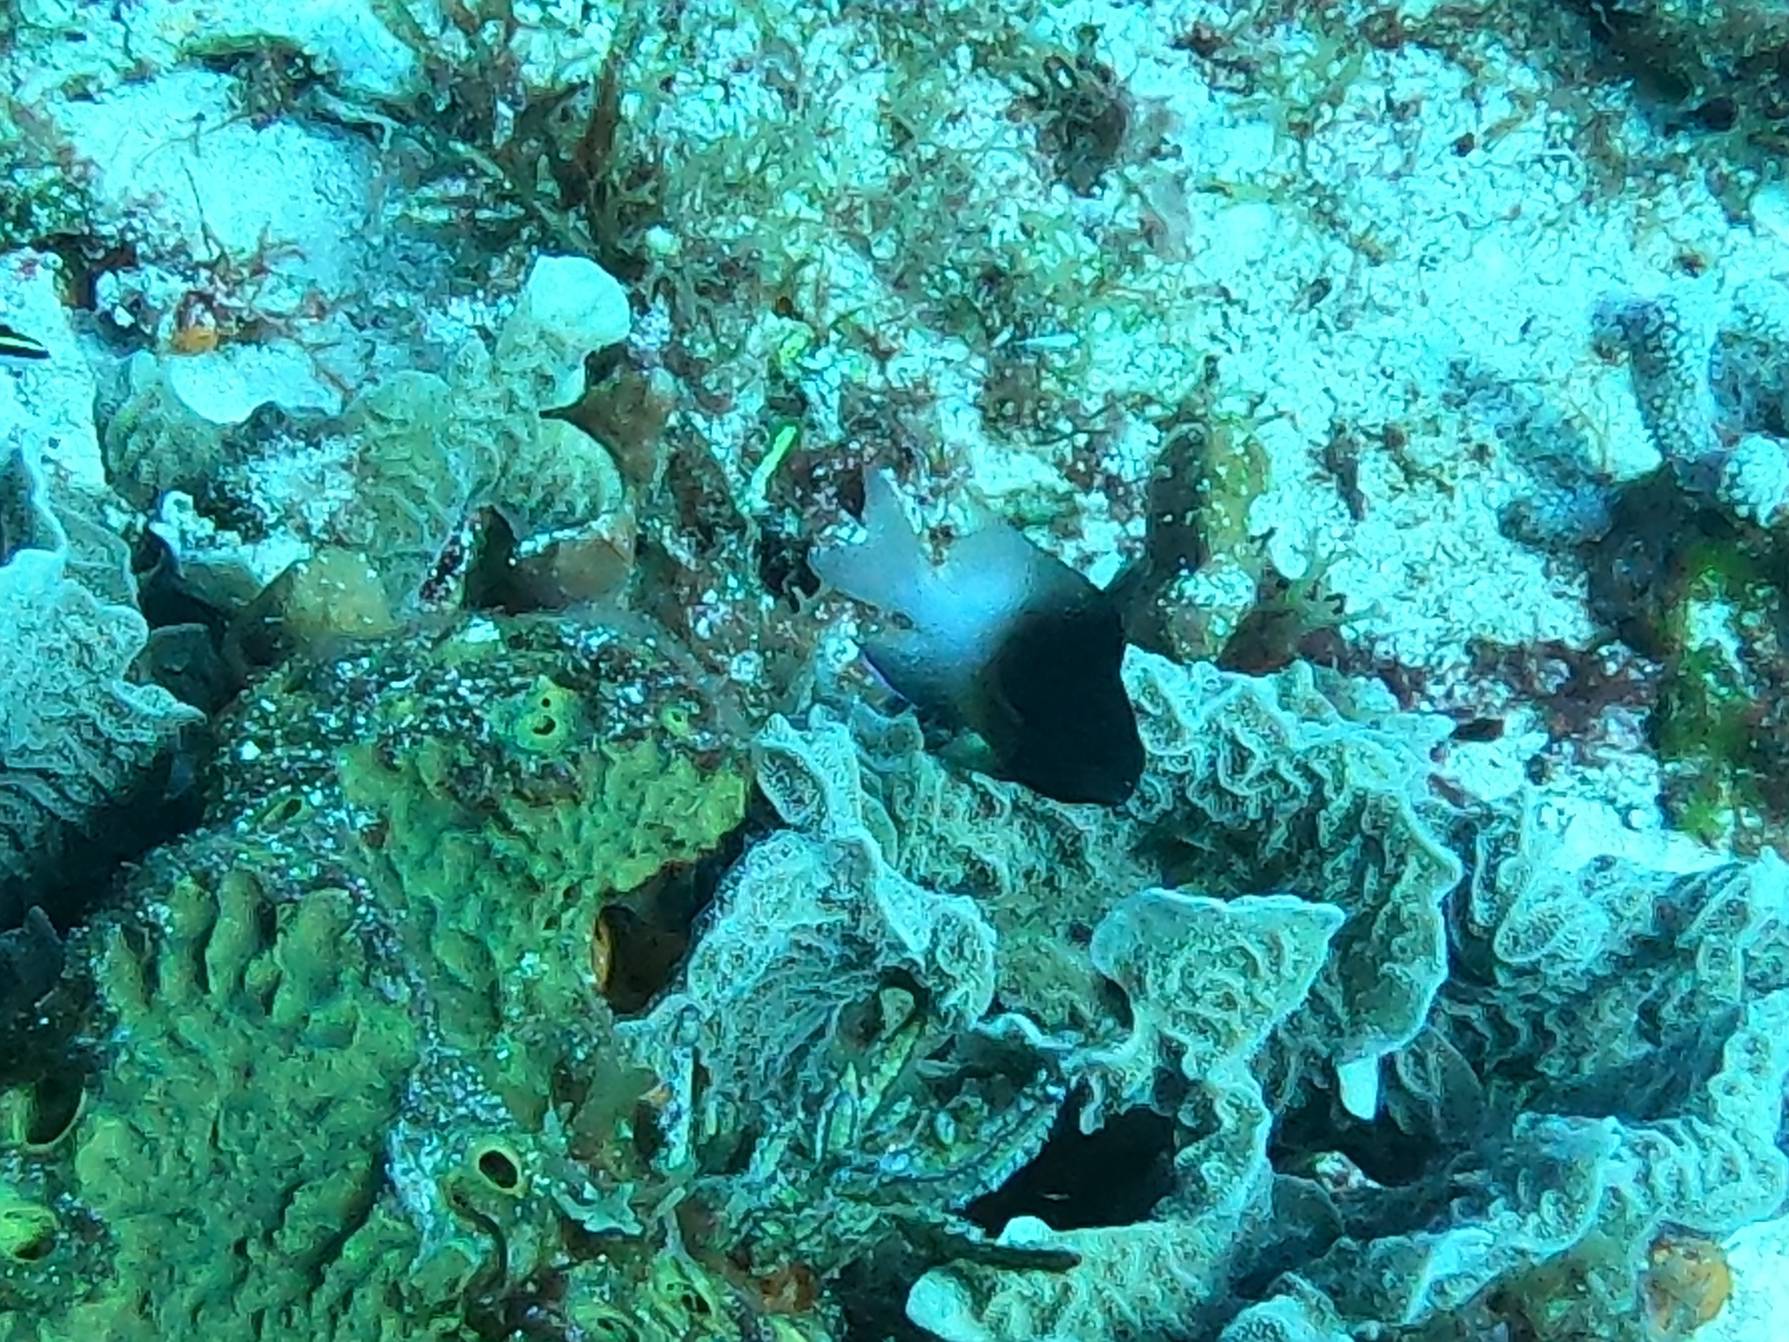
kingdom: Animalia
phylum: Chordata
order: Perciformes
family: Pomacentridae
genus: Stegastes
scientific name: Stegastes partitus
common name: Bicolor damselfish
